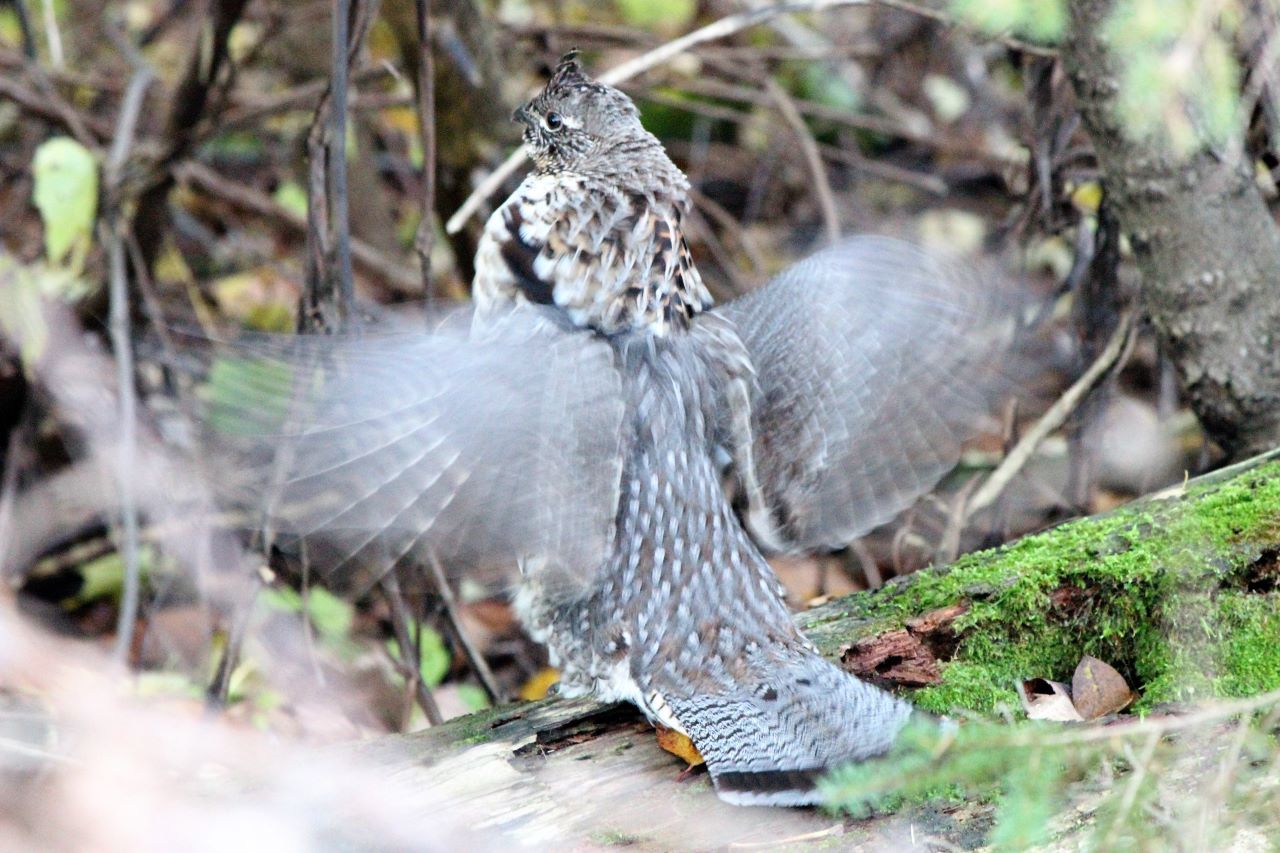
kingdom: Animalia
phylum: Chordata
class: Aves
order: Galliformes
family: Phasianidae
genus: Bonasa
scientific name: Bonasa umbellus
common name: Ruffed grouse
